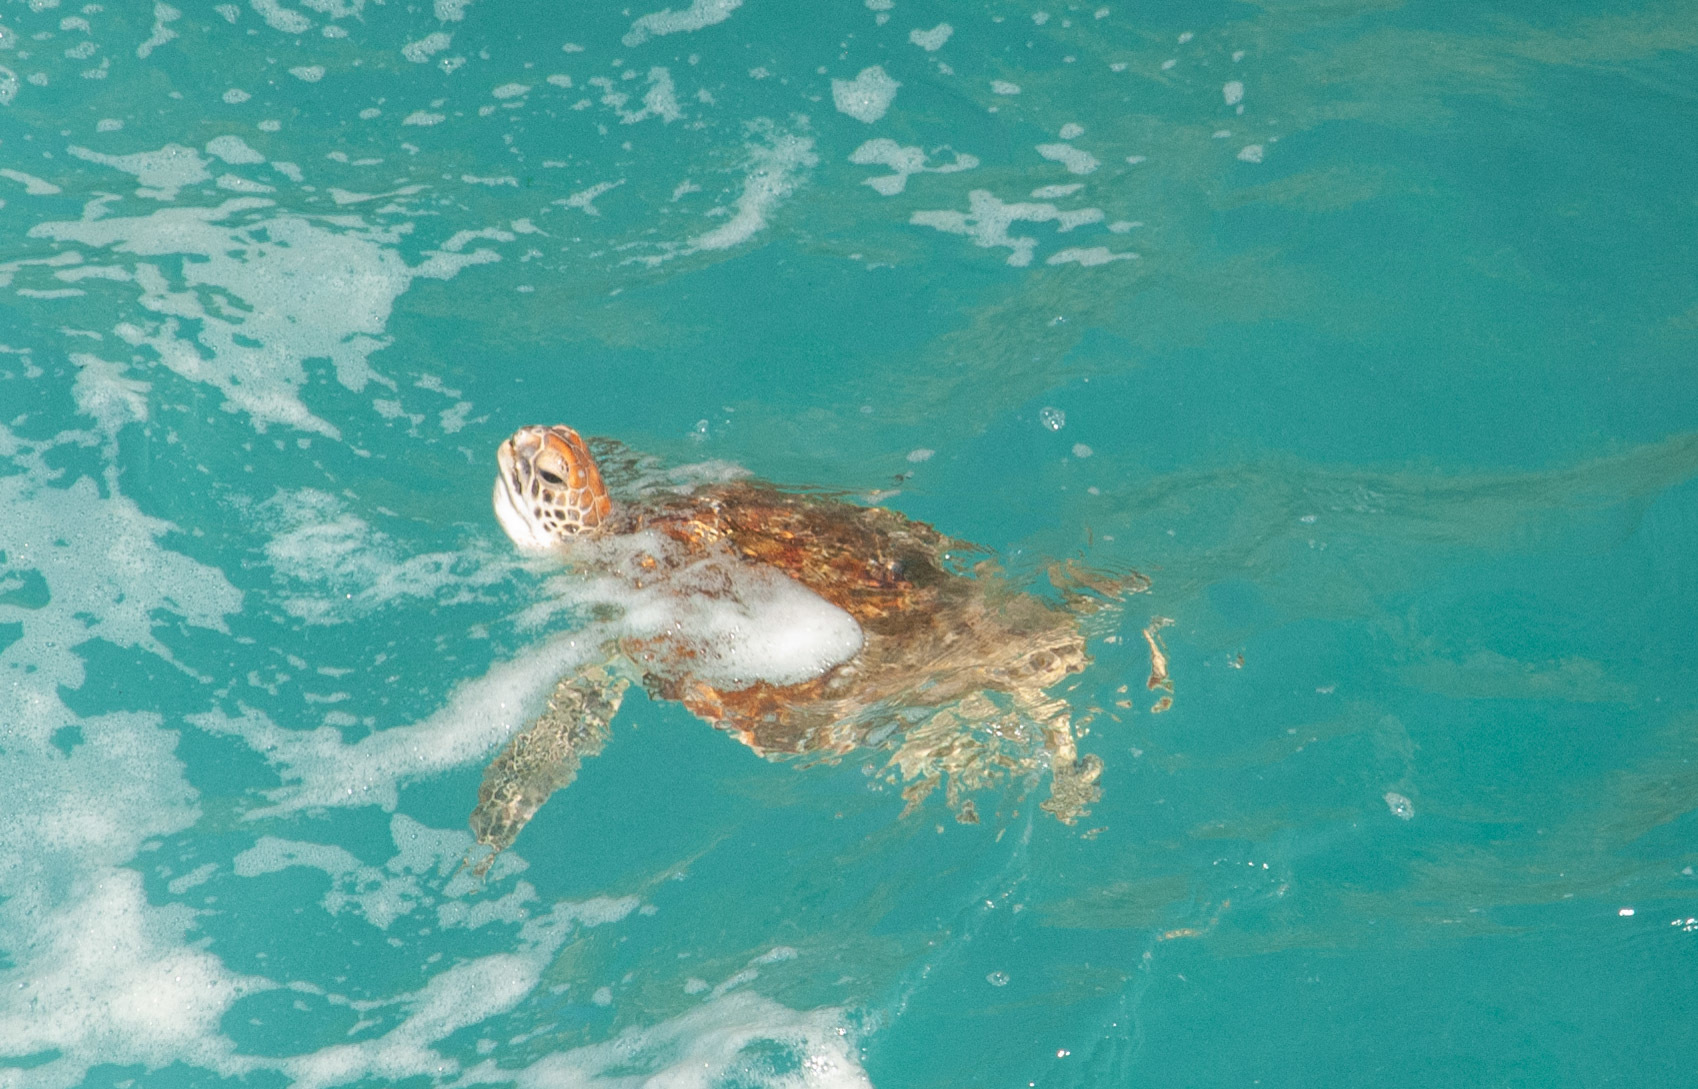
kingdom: Animalia
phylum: Chordata
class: Testudines
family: Cheloniidae
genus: Chelonia
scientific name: Chelonia mydas
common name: Green turtle
